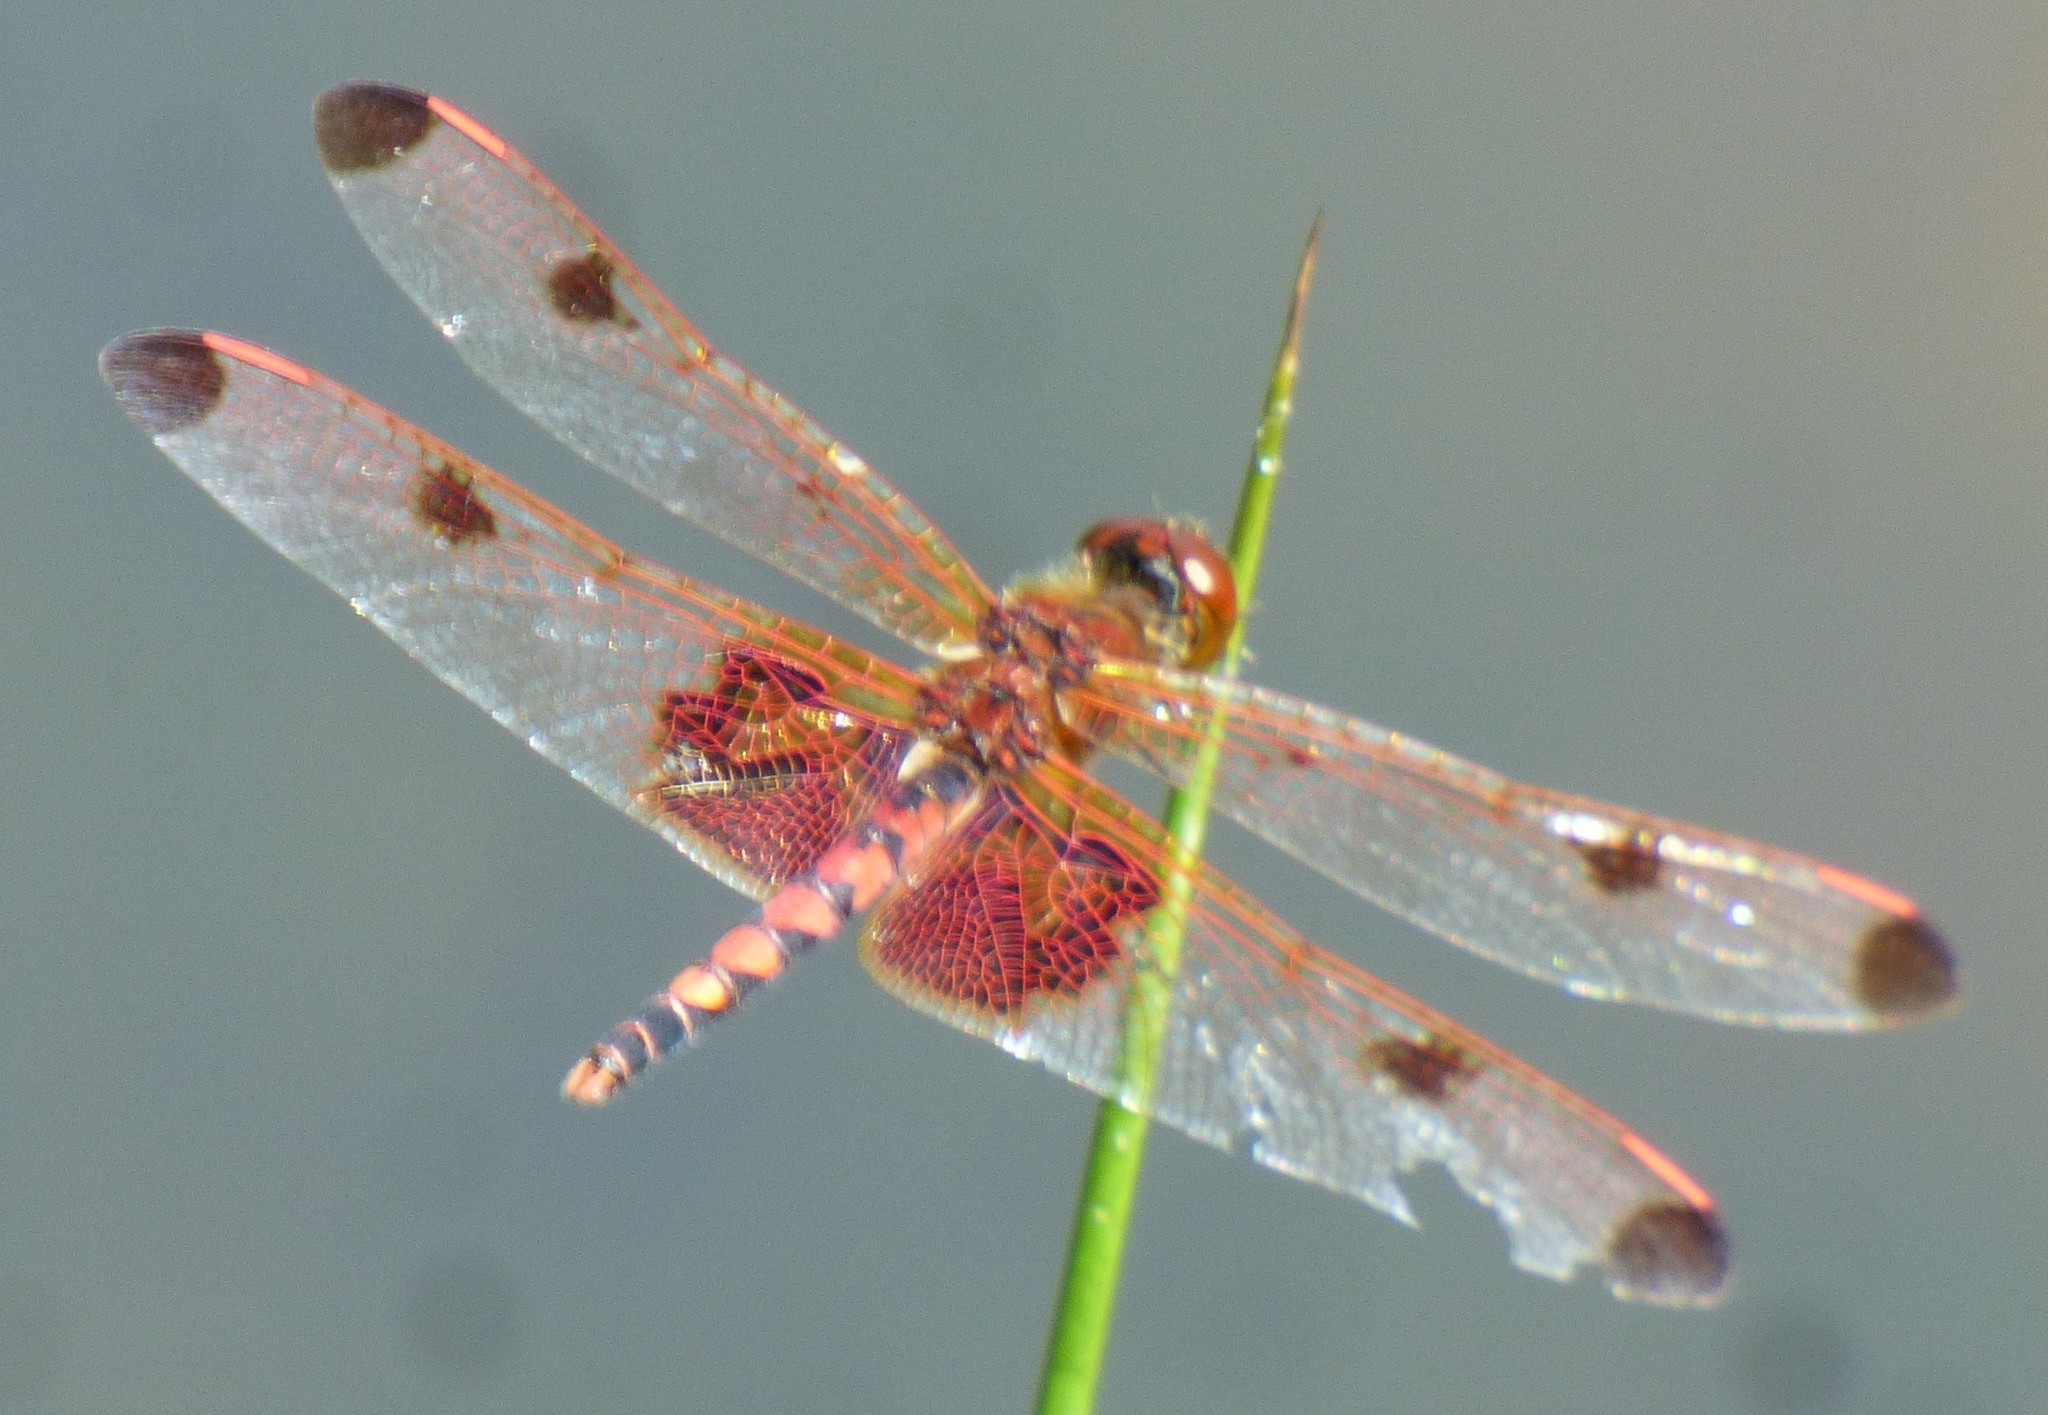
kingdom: Animalia
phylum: Arthropoda
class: Insecta
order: Odonata
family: Libellulidae
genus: Celithemis
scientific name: Celithemis elisa
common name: Calico pennant
